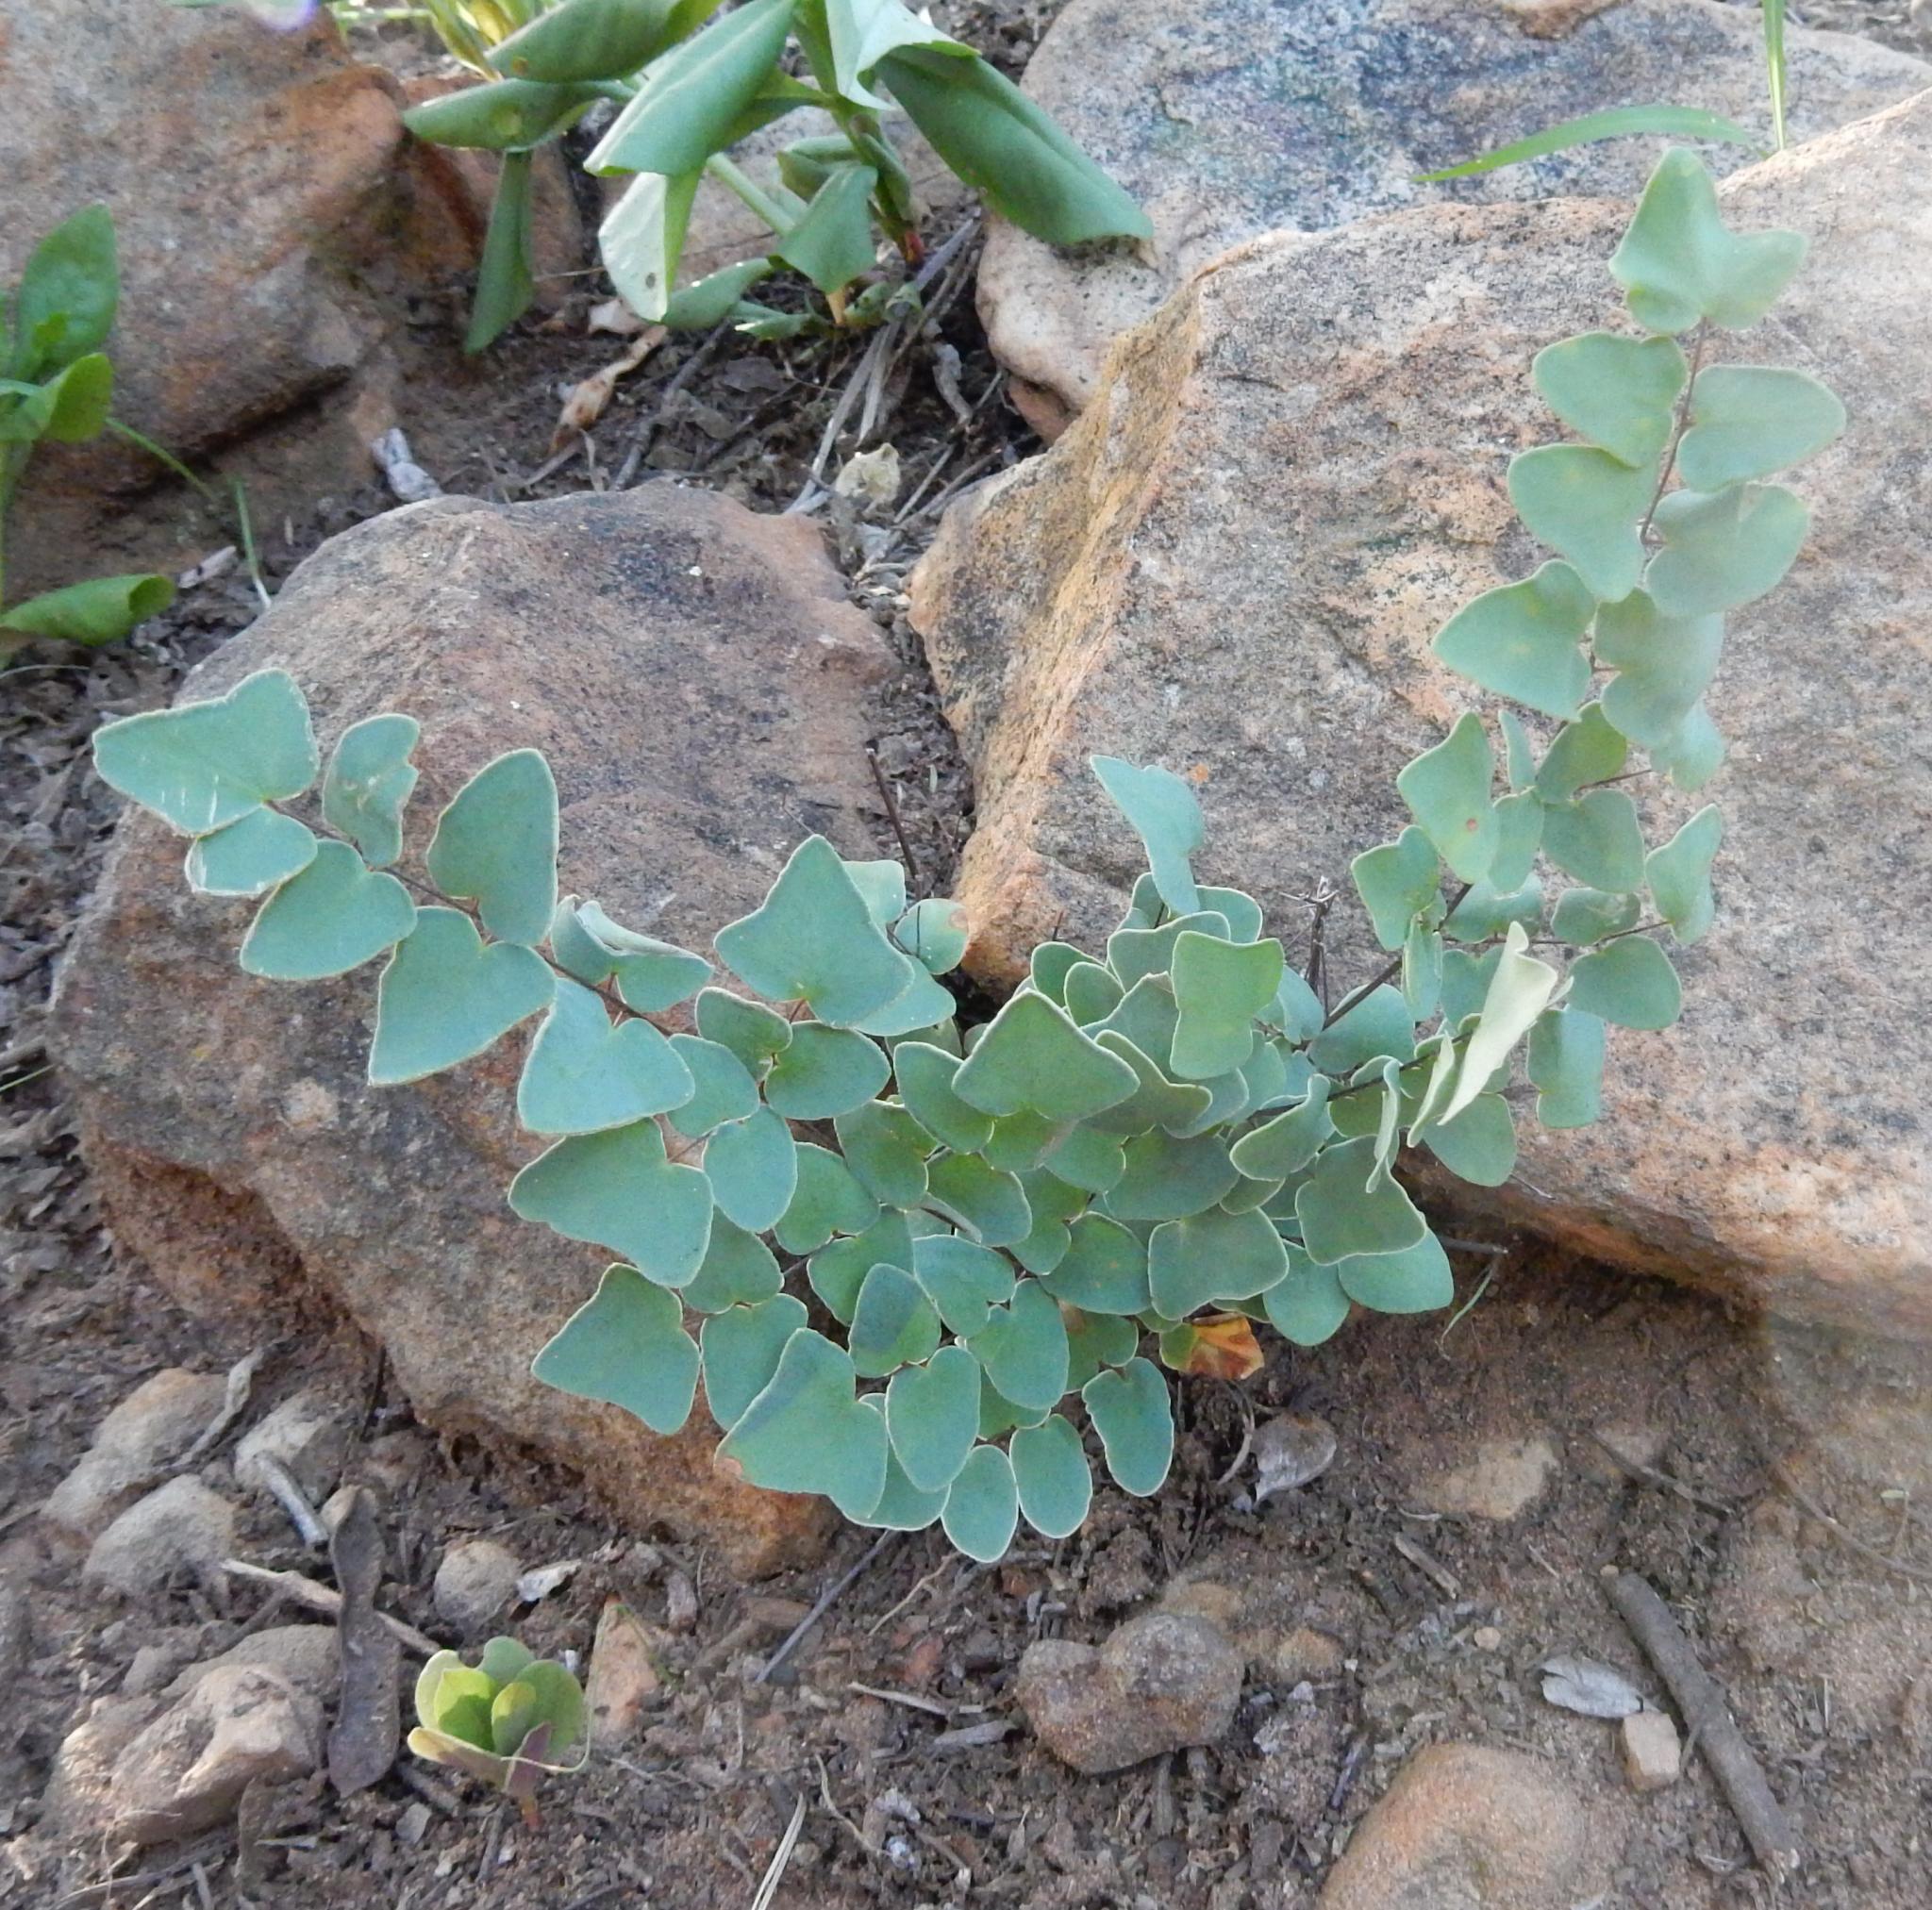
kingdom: Plantae
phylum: Tracheophyta
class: Polypodiopsida
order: Polypodiales
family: Pteridaceae
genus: Pellaea
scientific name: Pellaea calomelanos
